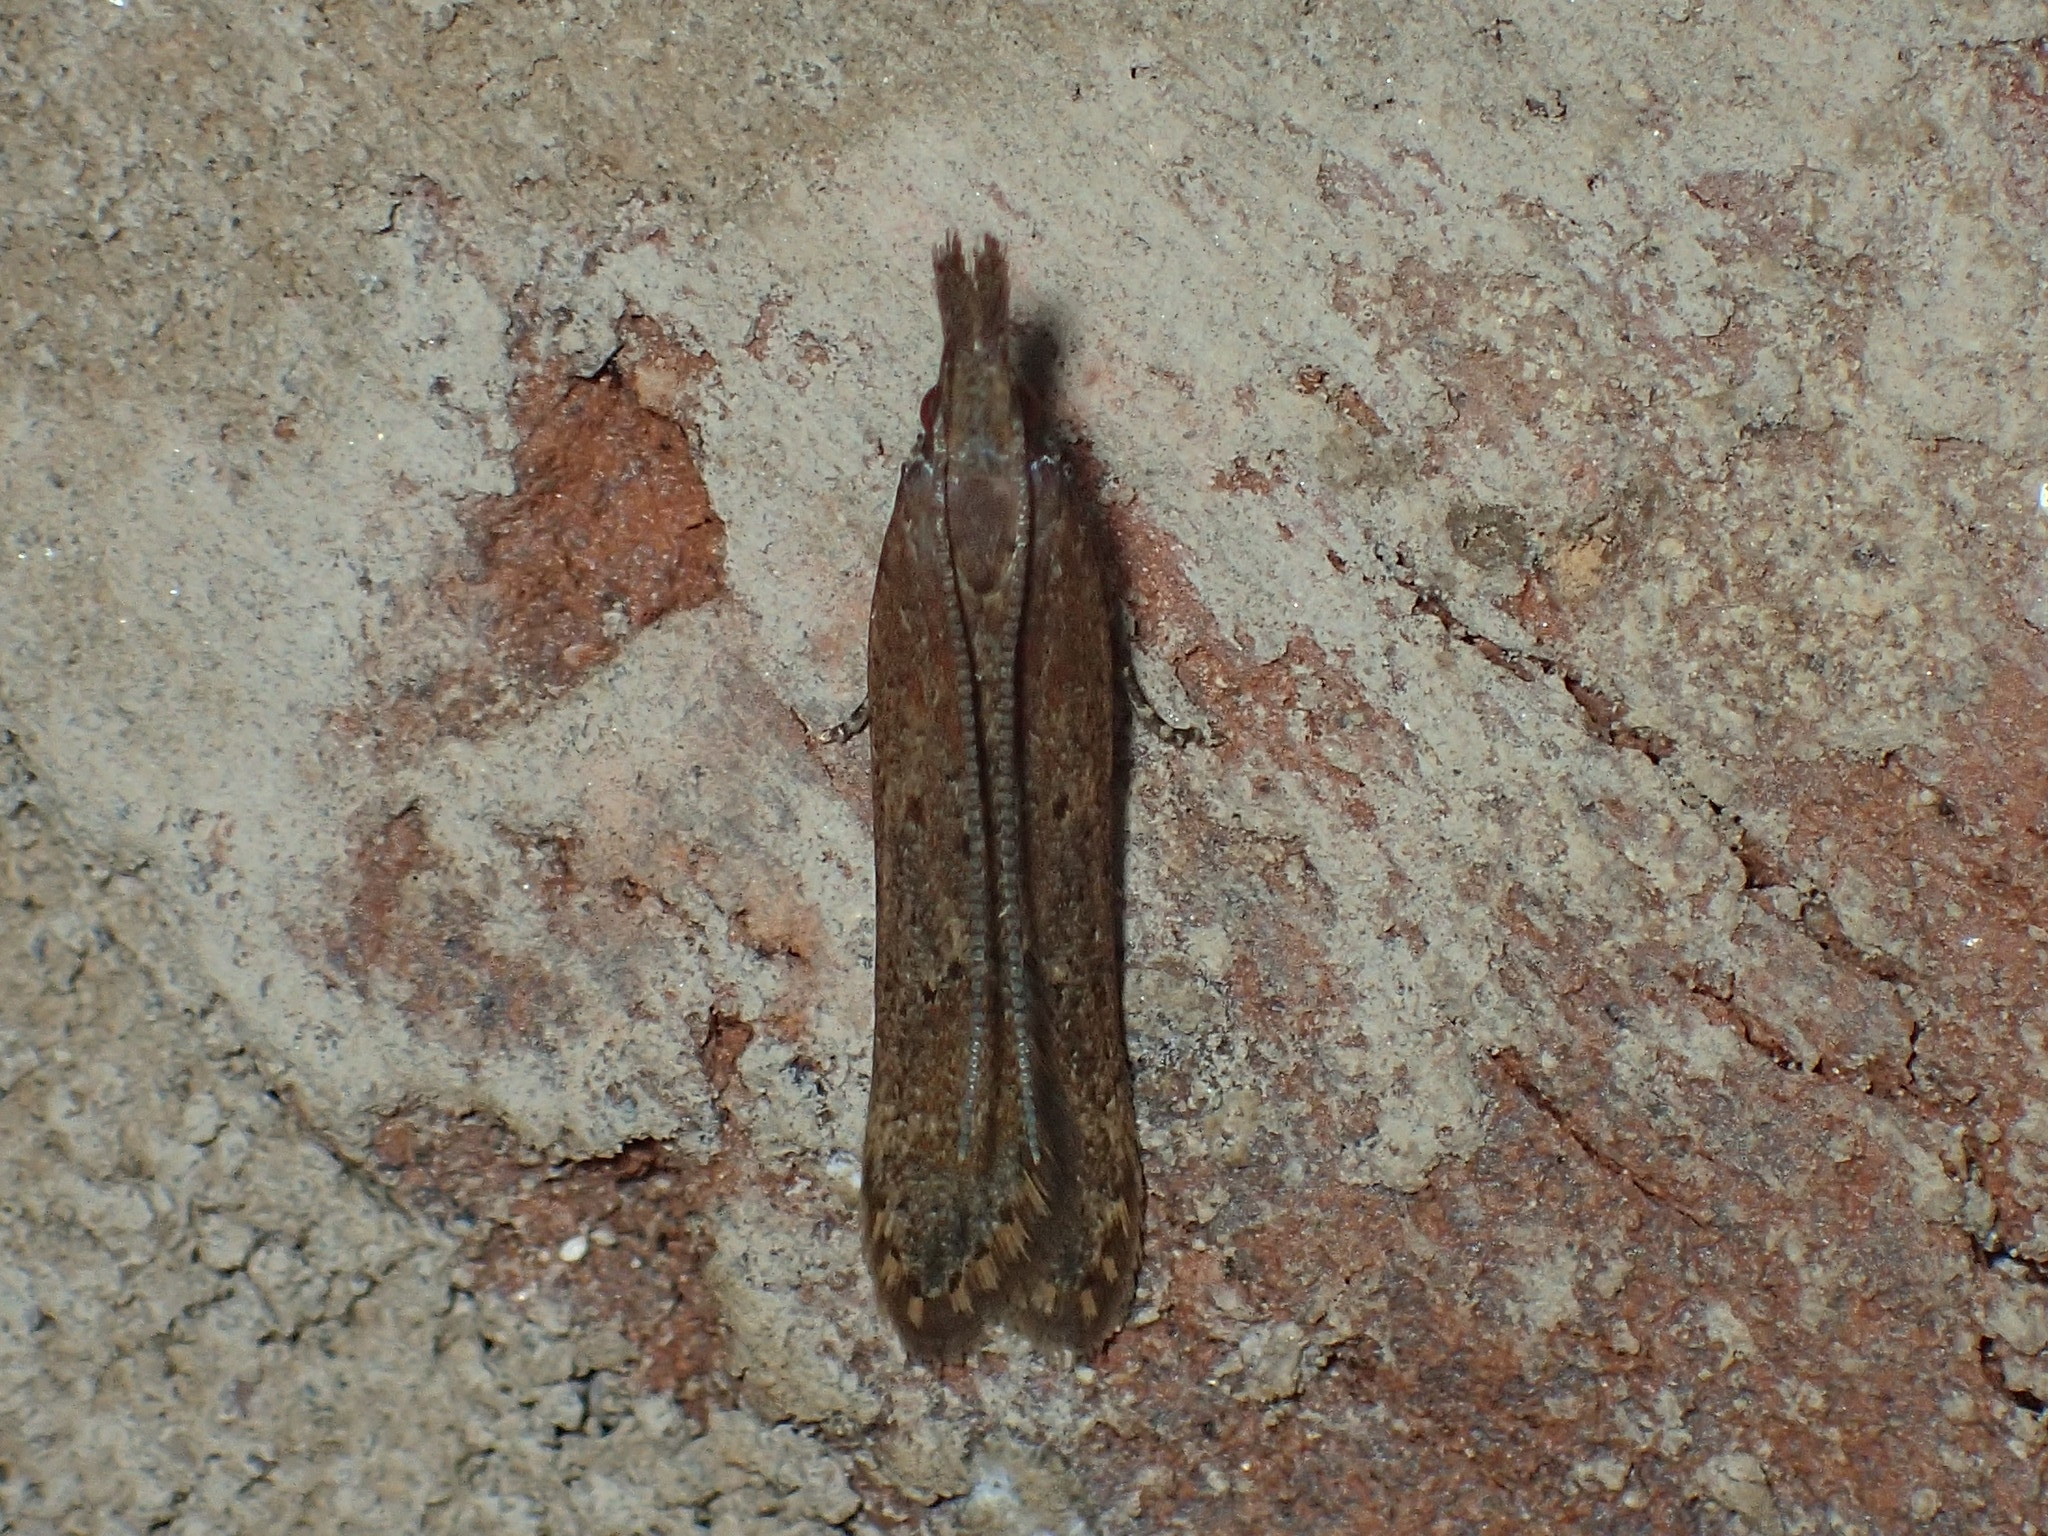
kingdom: Animalia
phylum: Arthropoda
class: Insecta
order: Lepidoptera
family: Gelechiidae
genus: Dichomeris
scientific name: Dichomeris ligulella
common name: Moth
